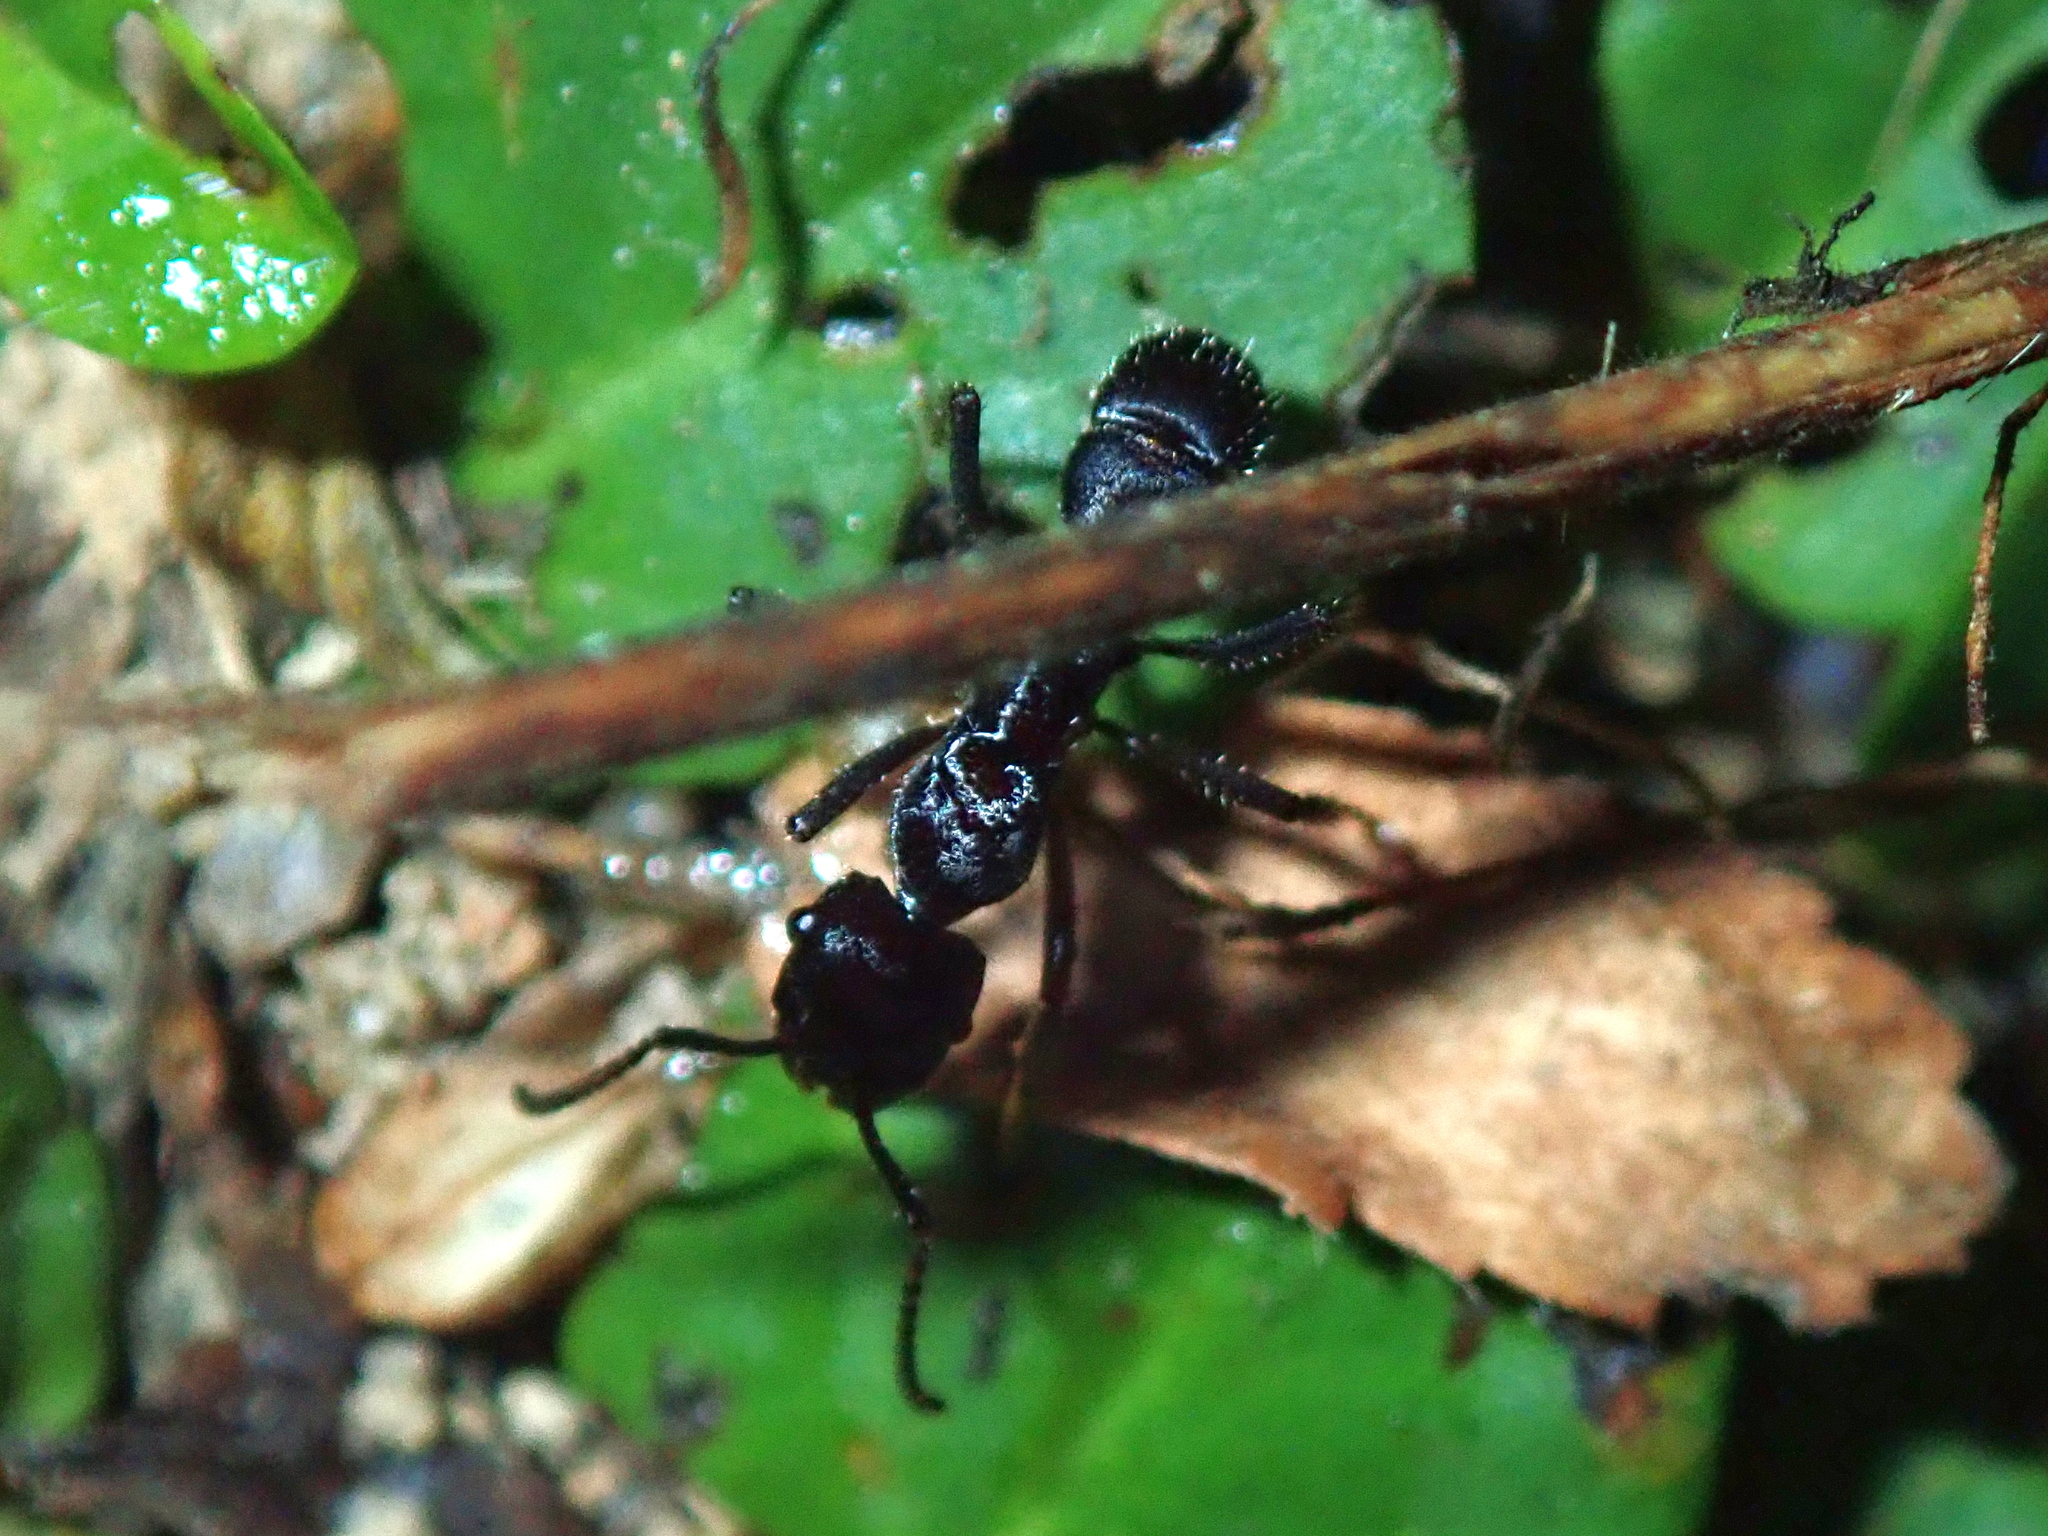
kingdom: Animalia
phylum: Arthropoda
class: Insecta
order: Hymenoptera
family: Formicidae
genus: Ectatomma
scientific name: Ectatomma brunneum
